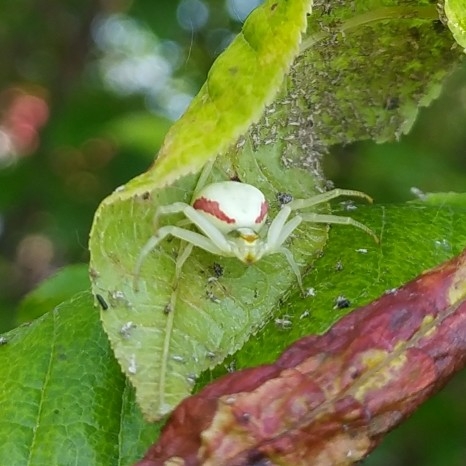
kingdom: Animalia
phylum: Arthropoda
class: Arachnida
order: Araneae
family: Thomisidae
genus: Misumena
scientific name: Misumena vatia
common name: Goldenrod crab spider
